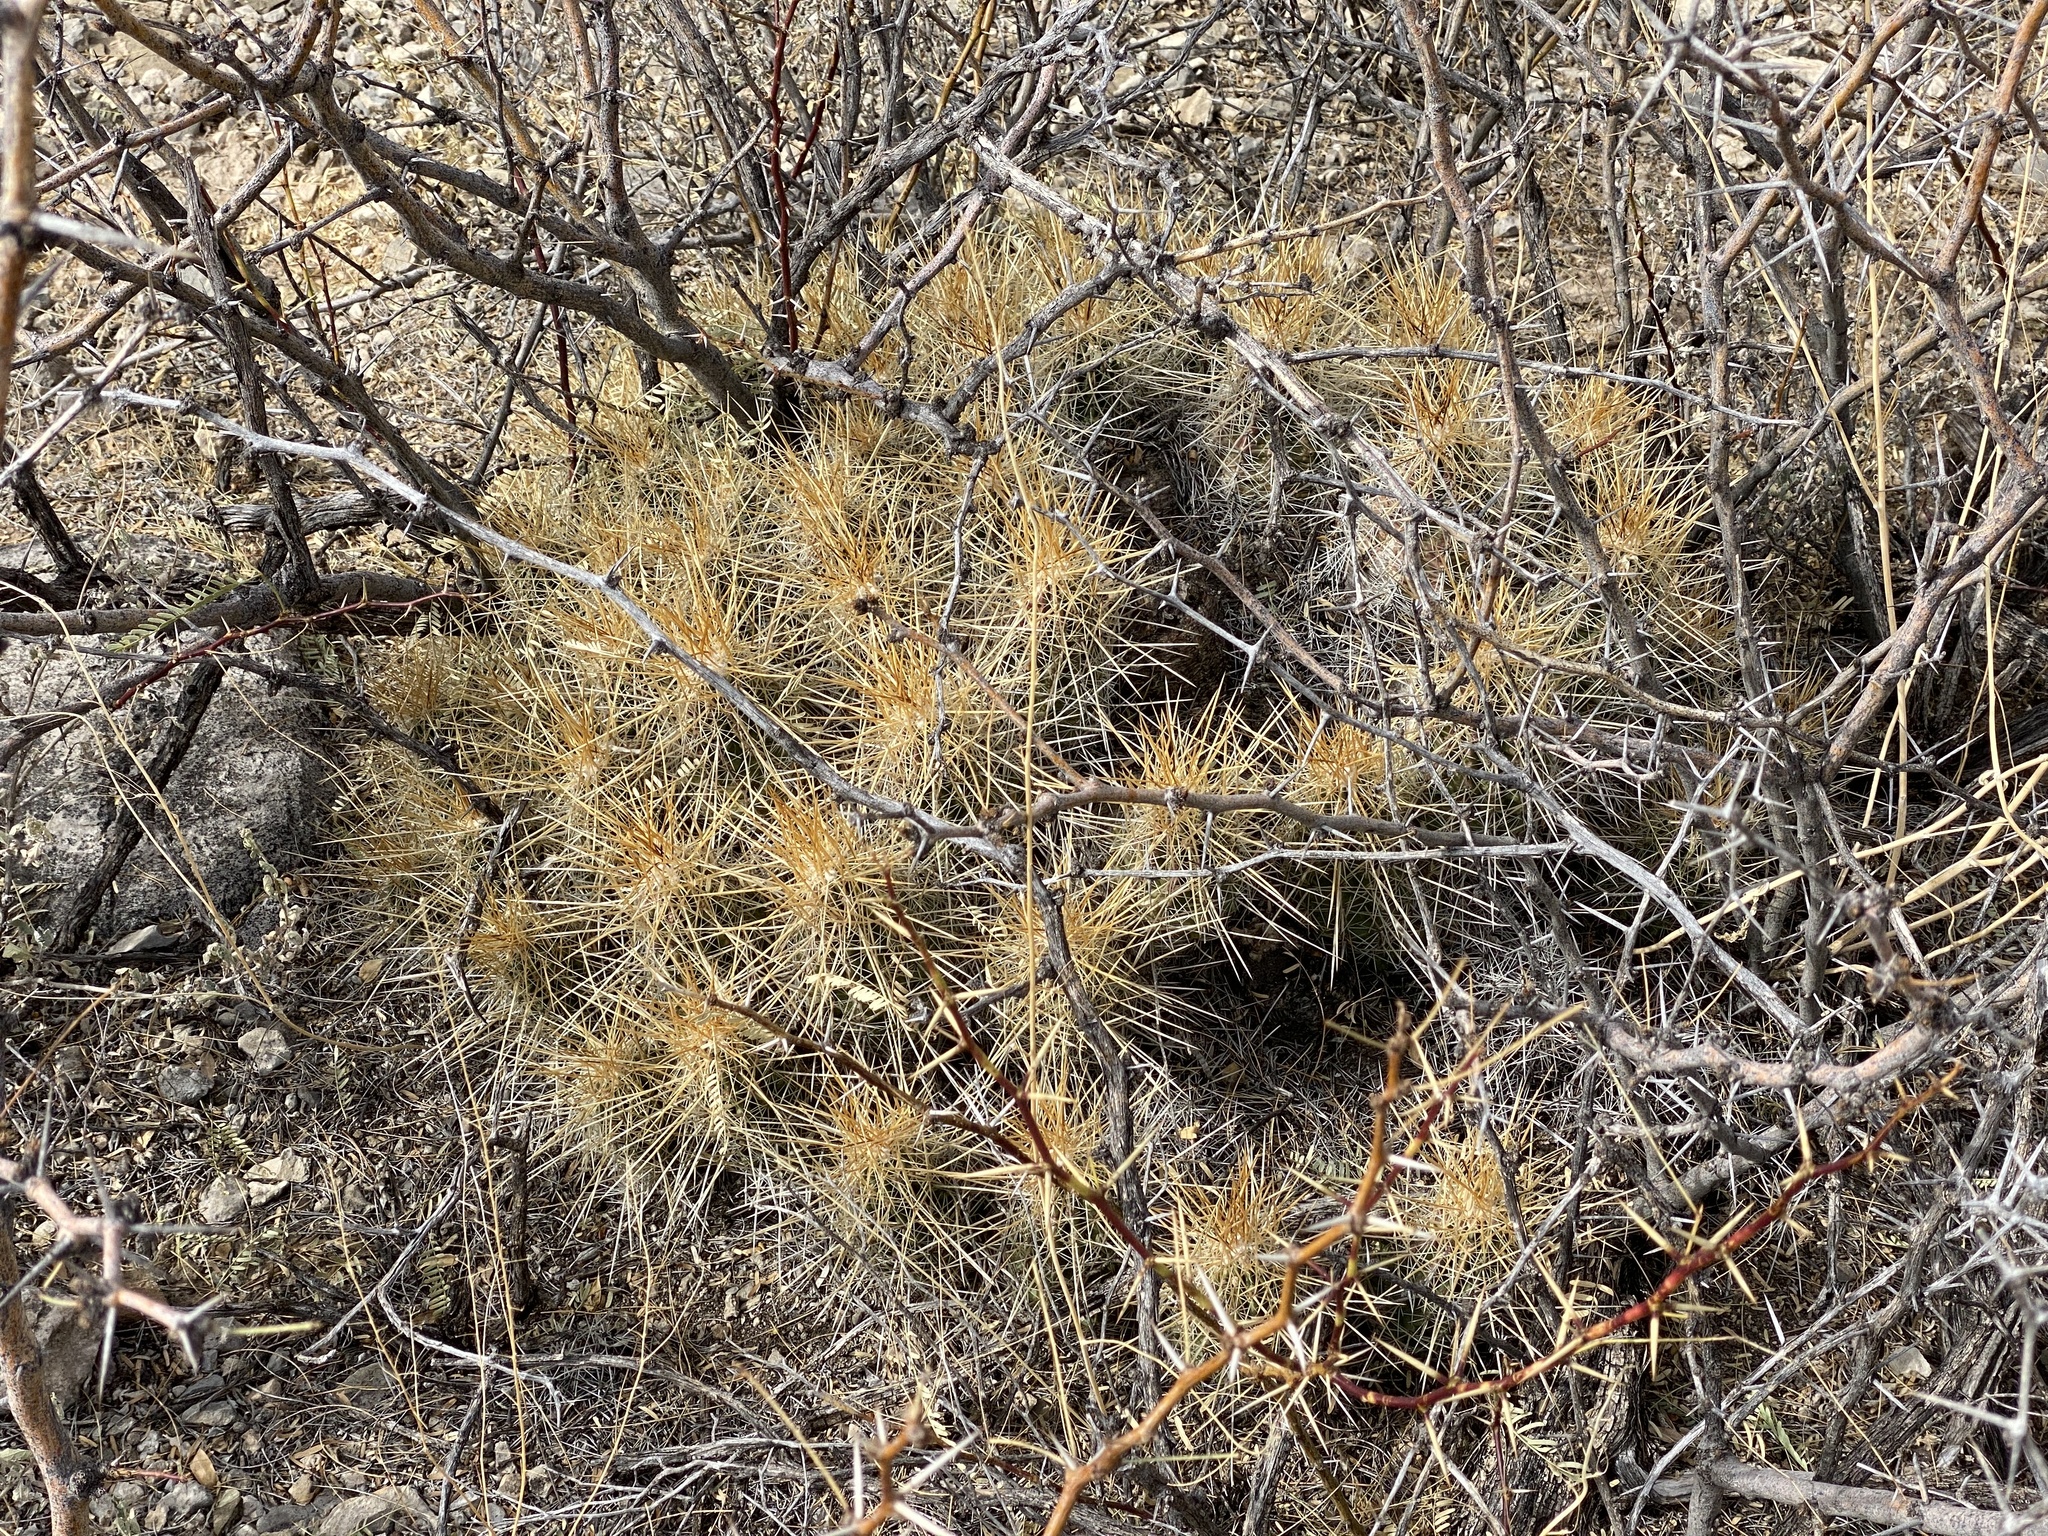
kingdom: Plantae
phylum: Tracheophyta
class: Magnoliopsida
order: Caryophyllales
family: Cactaceae
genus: Echinocereus
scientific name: Echinocereus stramineus
